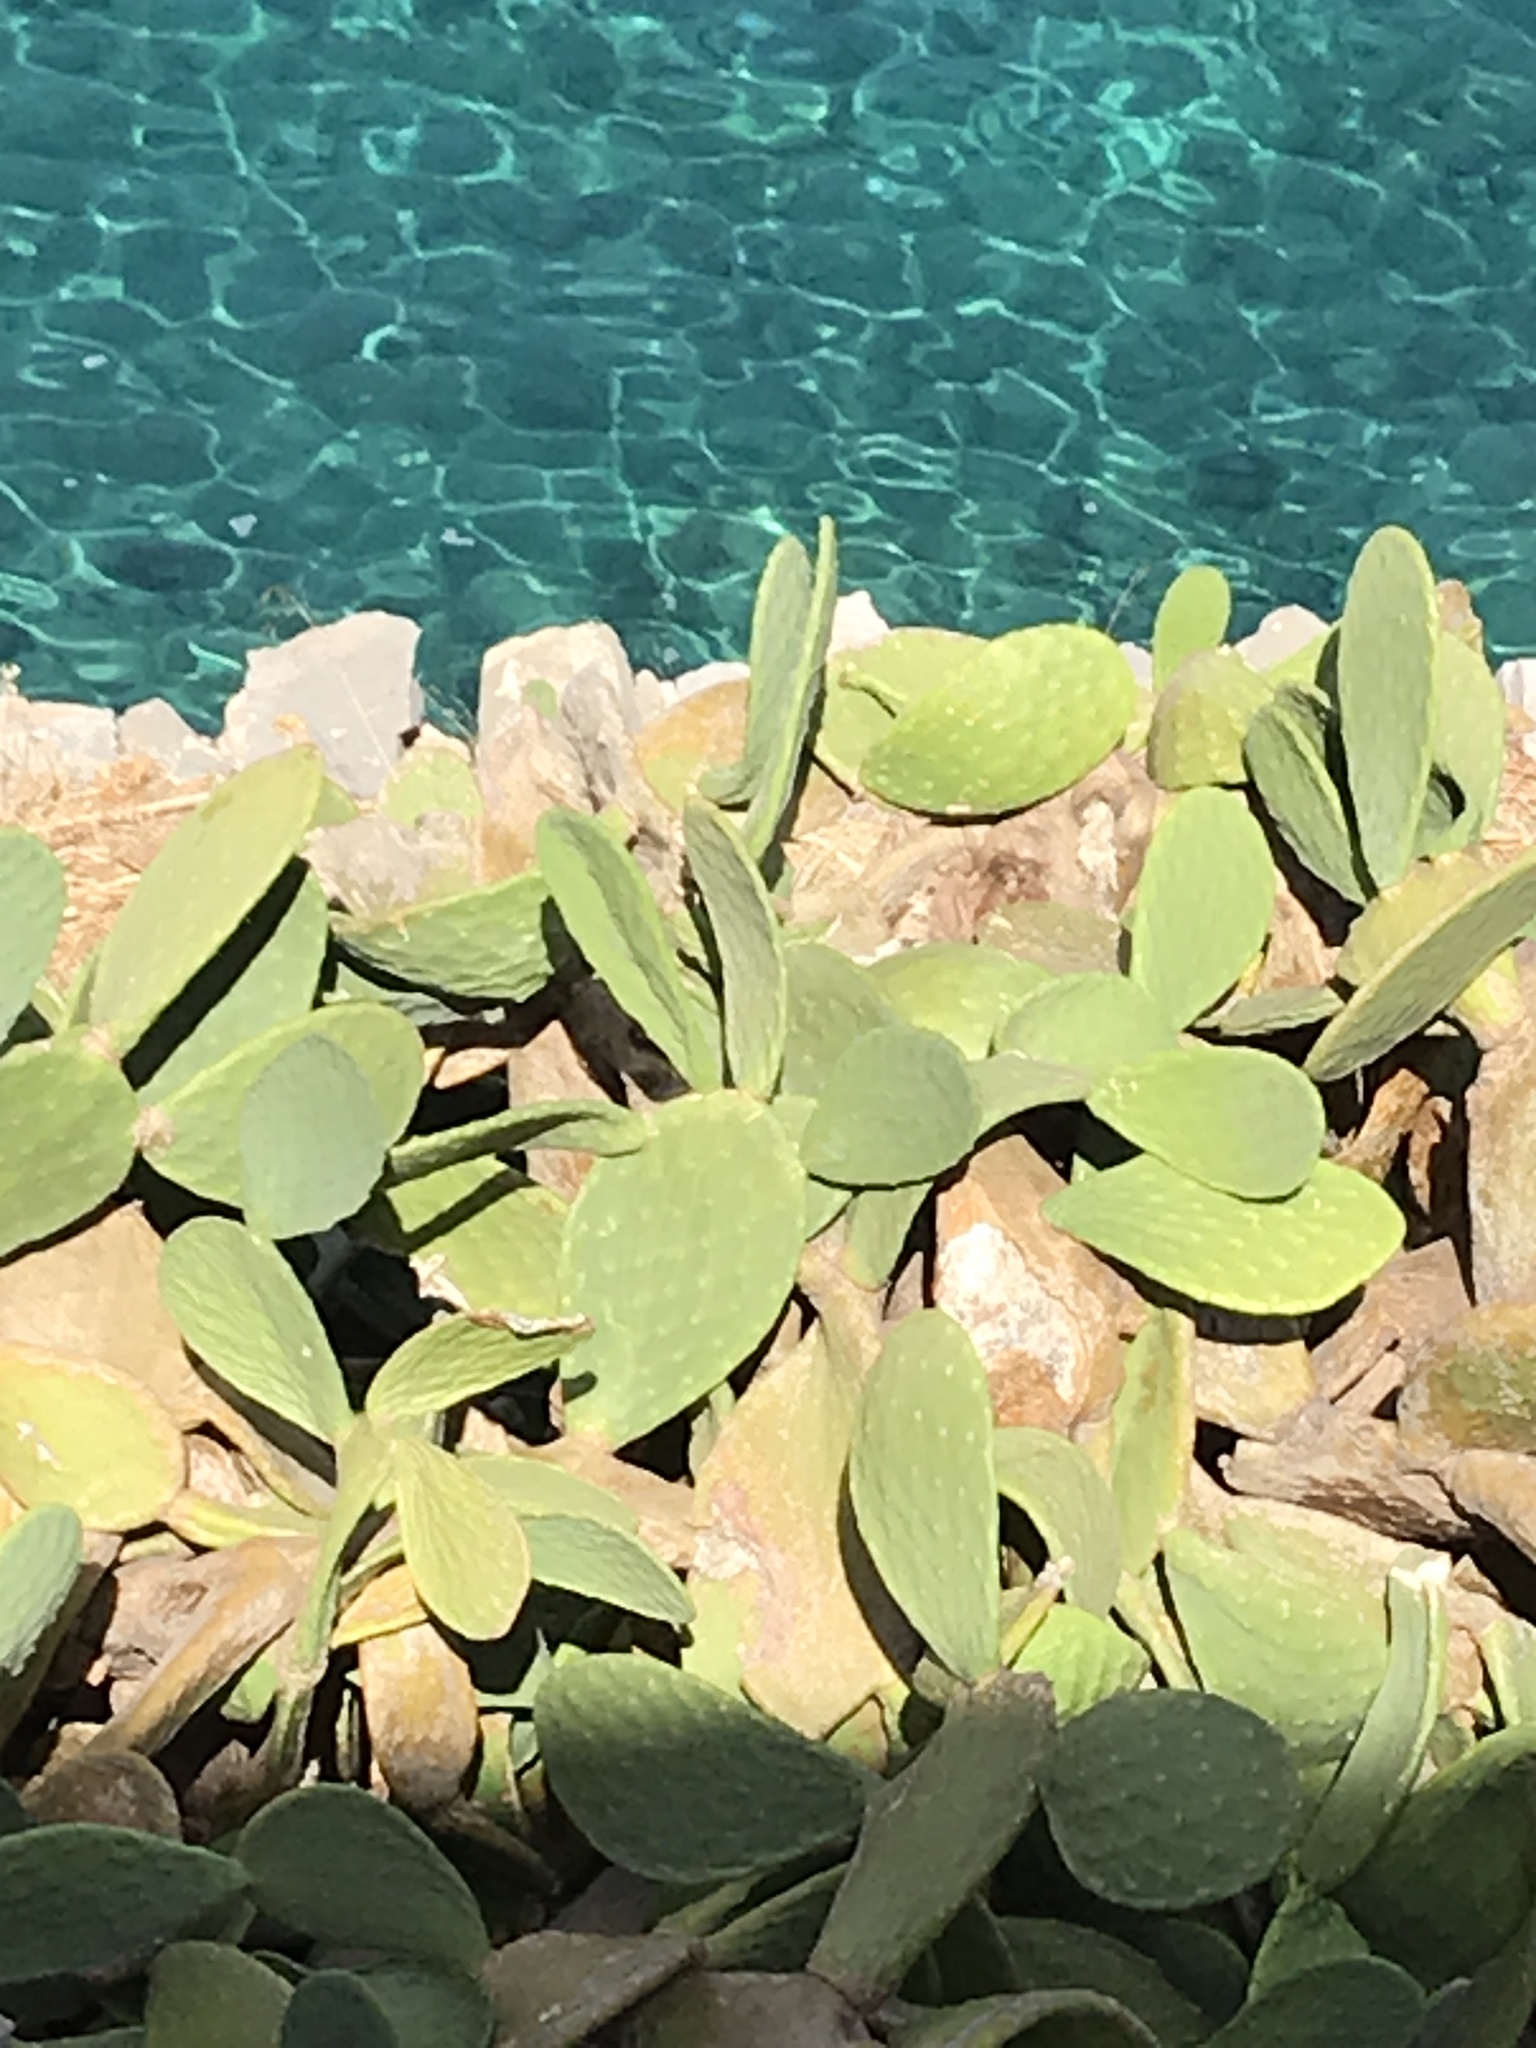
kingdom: Plantae
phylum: Tracheophyta
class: Magnoliopsida
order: Caryophyllales
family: Cactaceae
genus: Opuntia
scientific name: Opuntia ficus-indica
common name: Barbary fig
